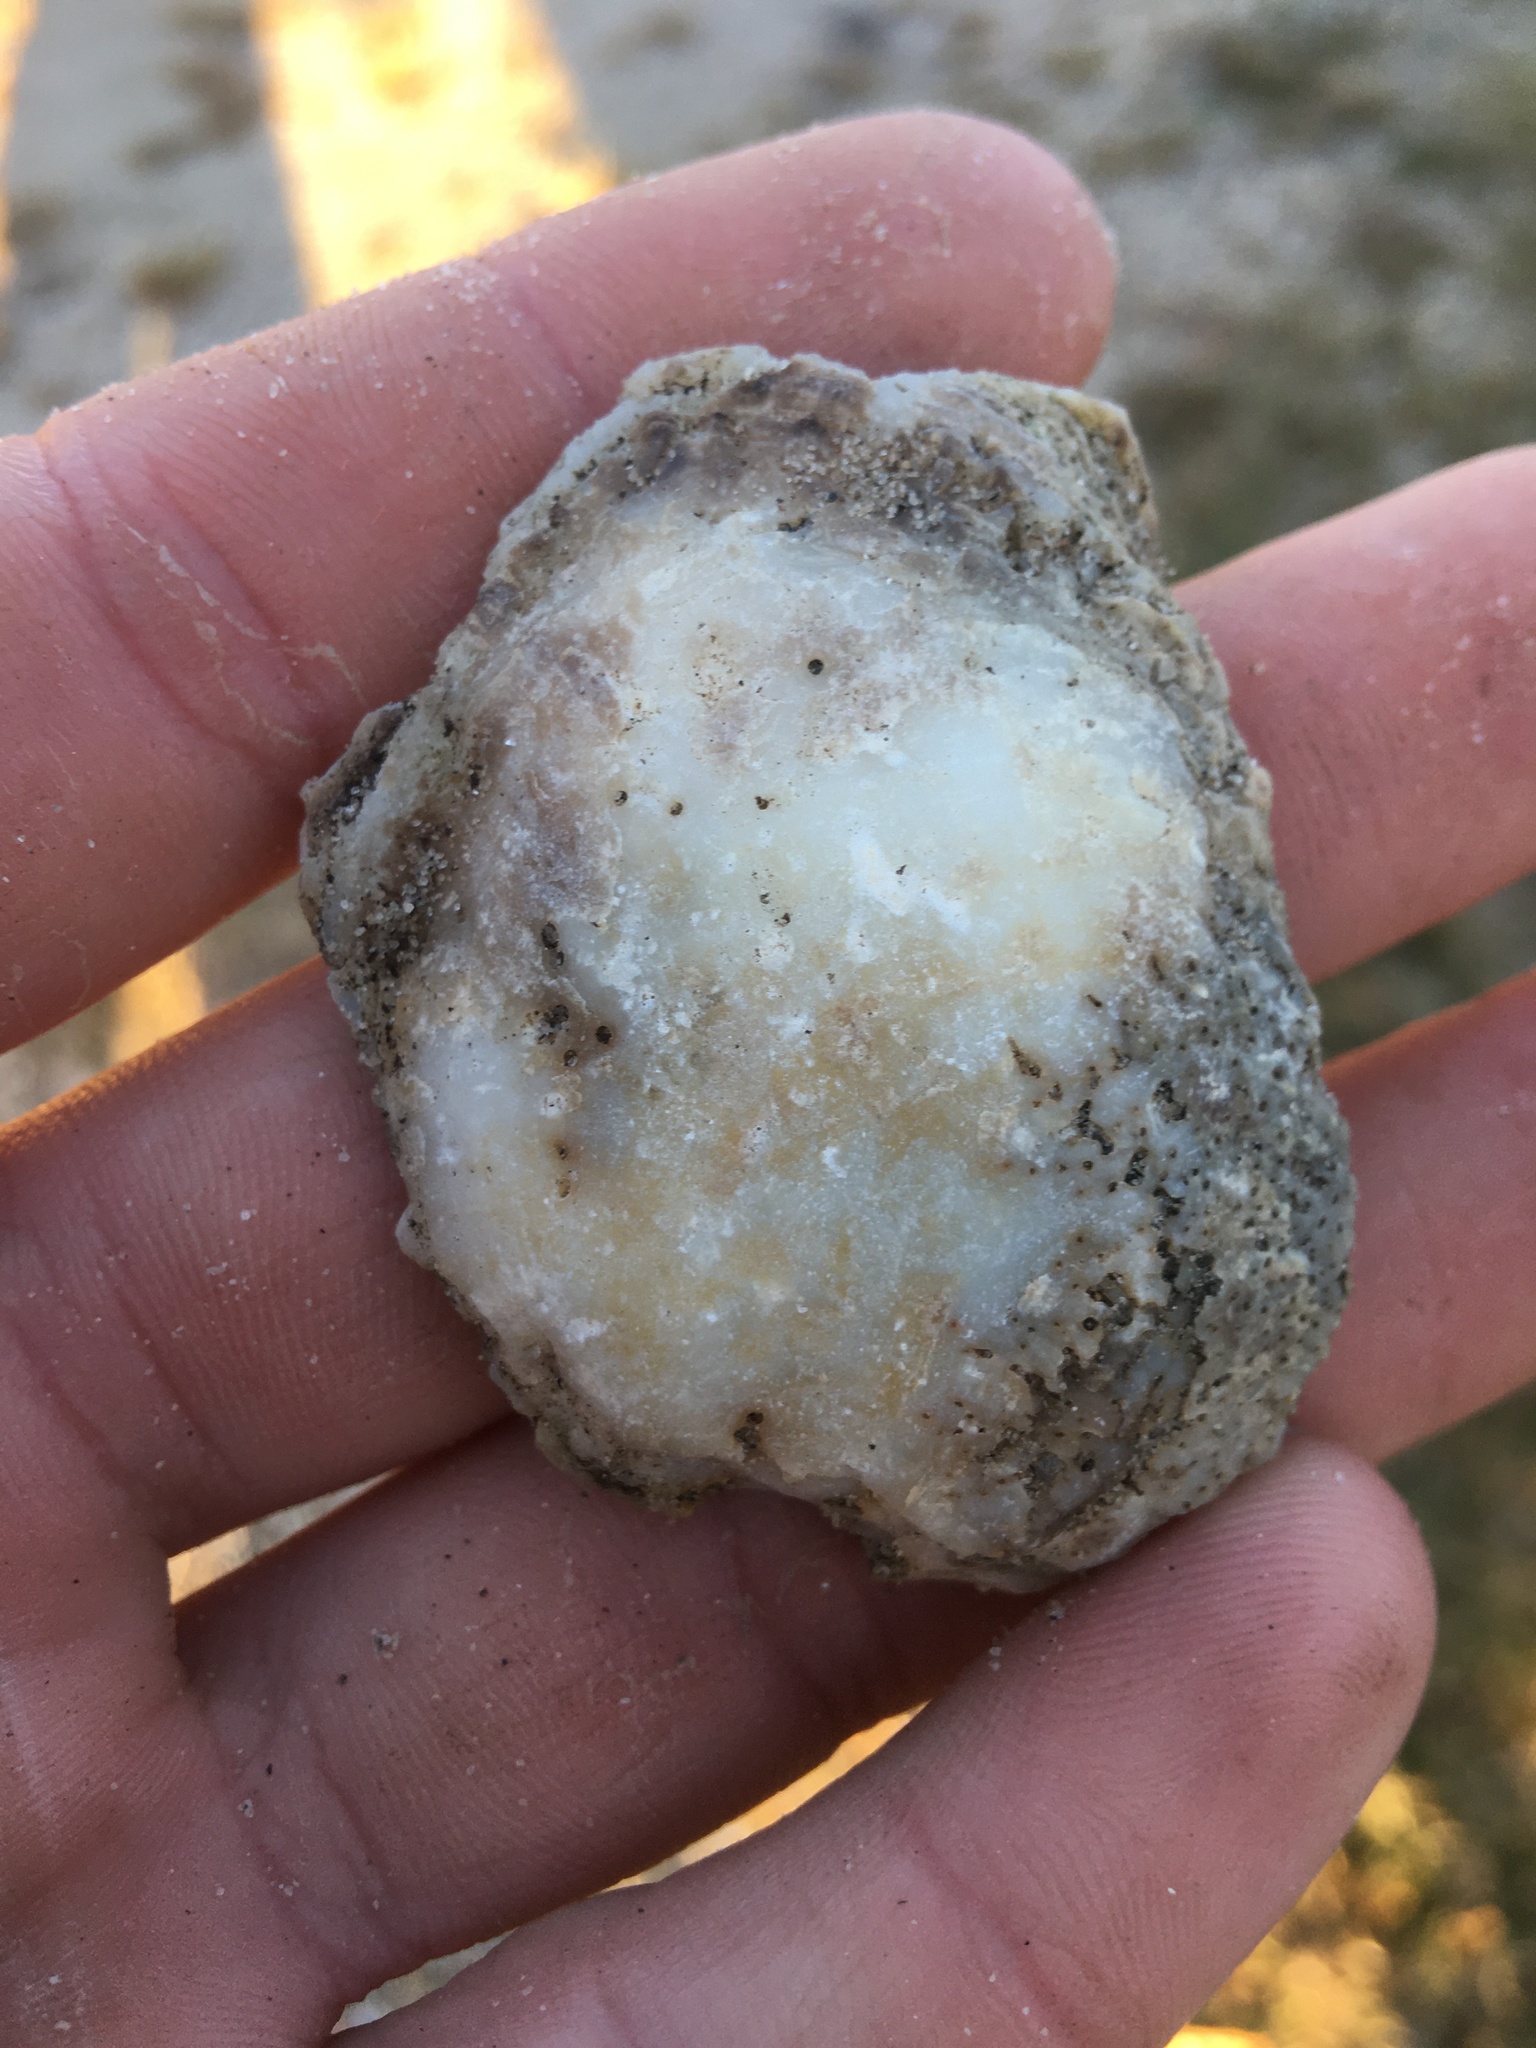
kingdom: Animalia
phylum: Mollusca
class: Bivalvia
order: Ostreida
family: Ostreidae
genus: Crassostrea
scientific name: Crassostrea virginica
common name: American oyster
